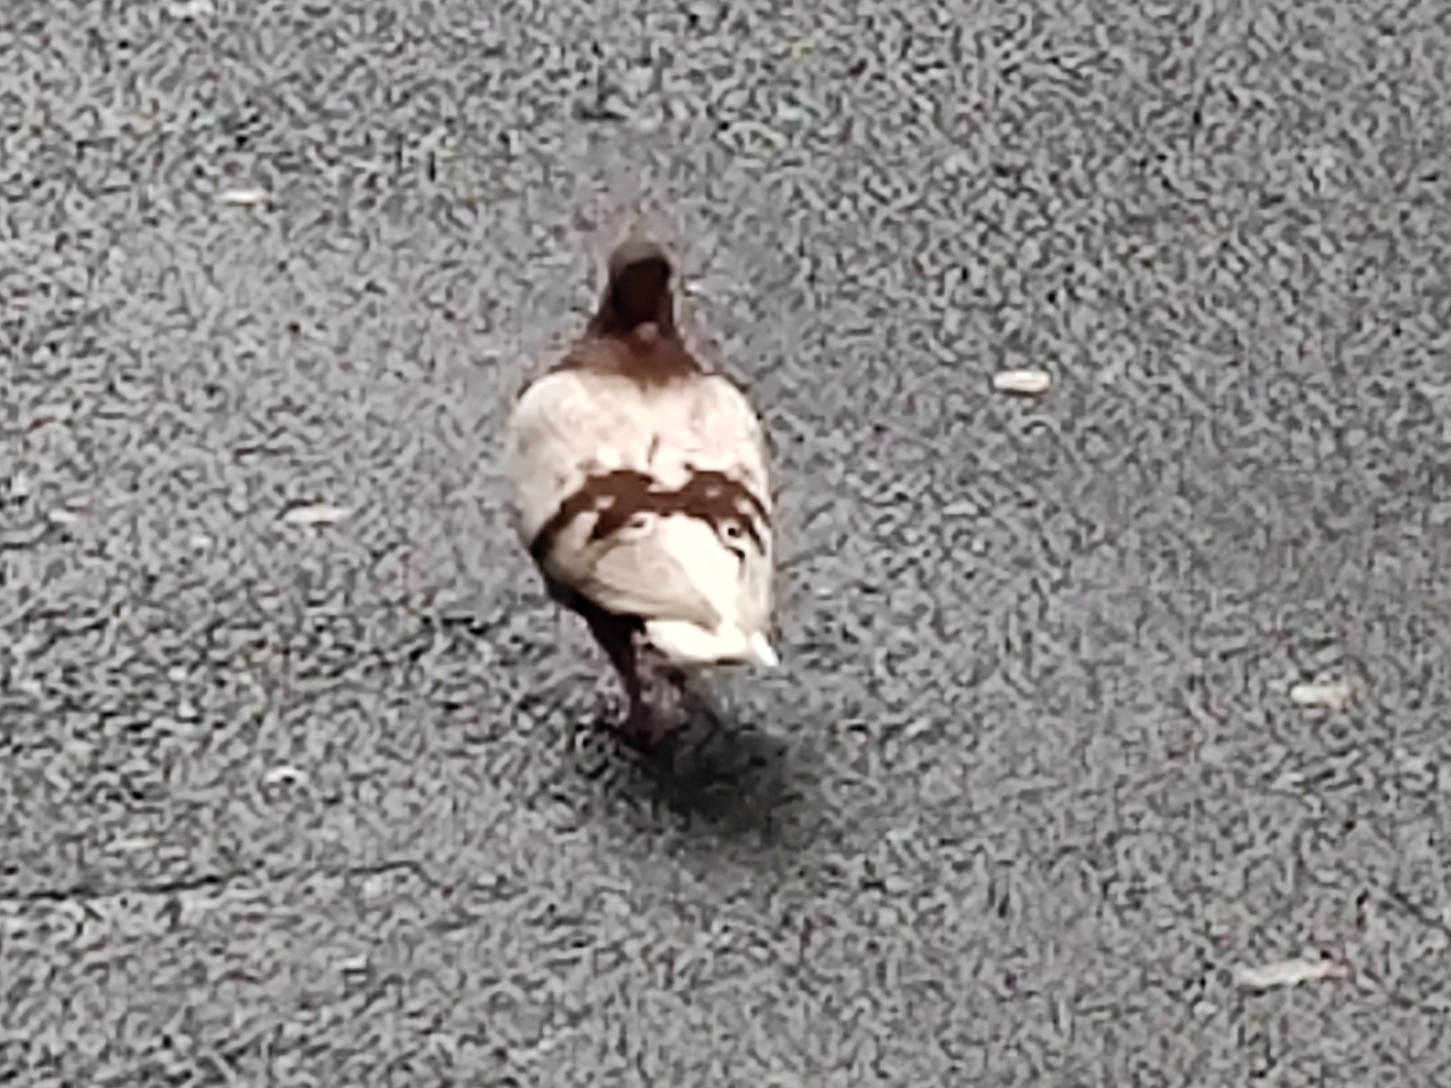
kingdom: Animalia
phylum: Chordata
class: Aves
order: Columbiformes
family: Columbidae
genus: Columba
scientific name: Columba livia
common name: Rock pigeon
